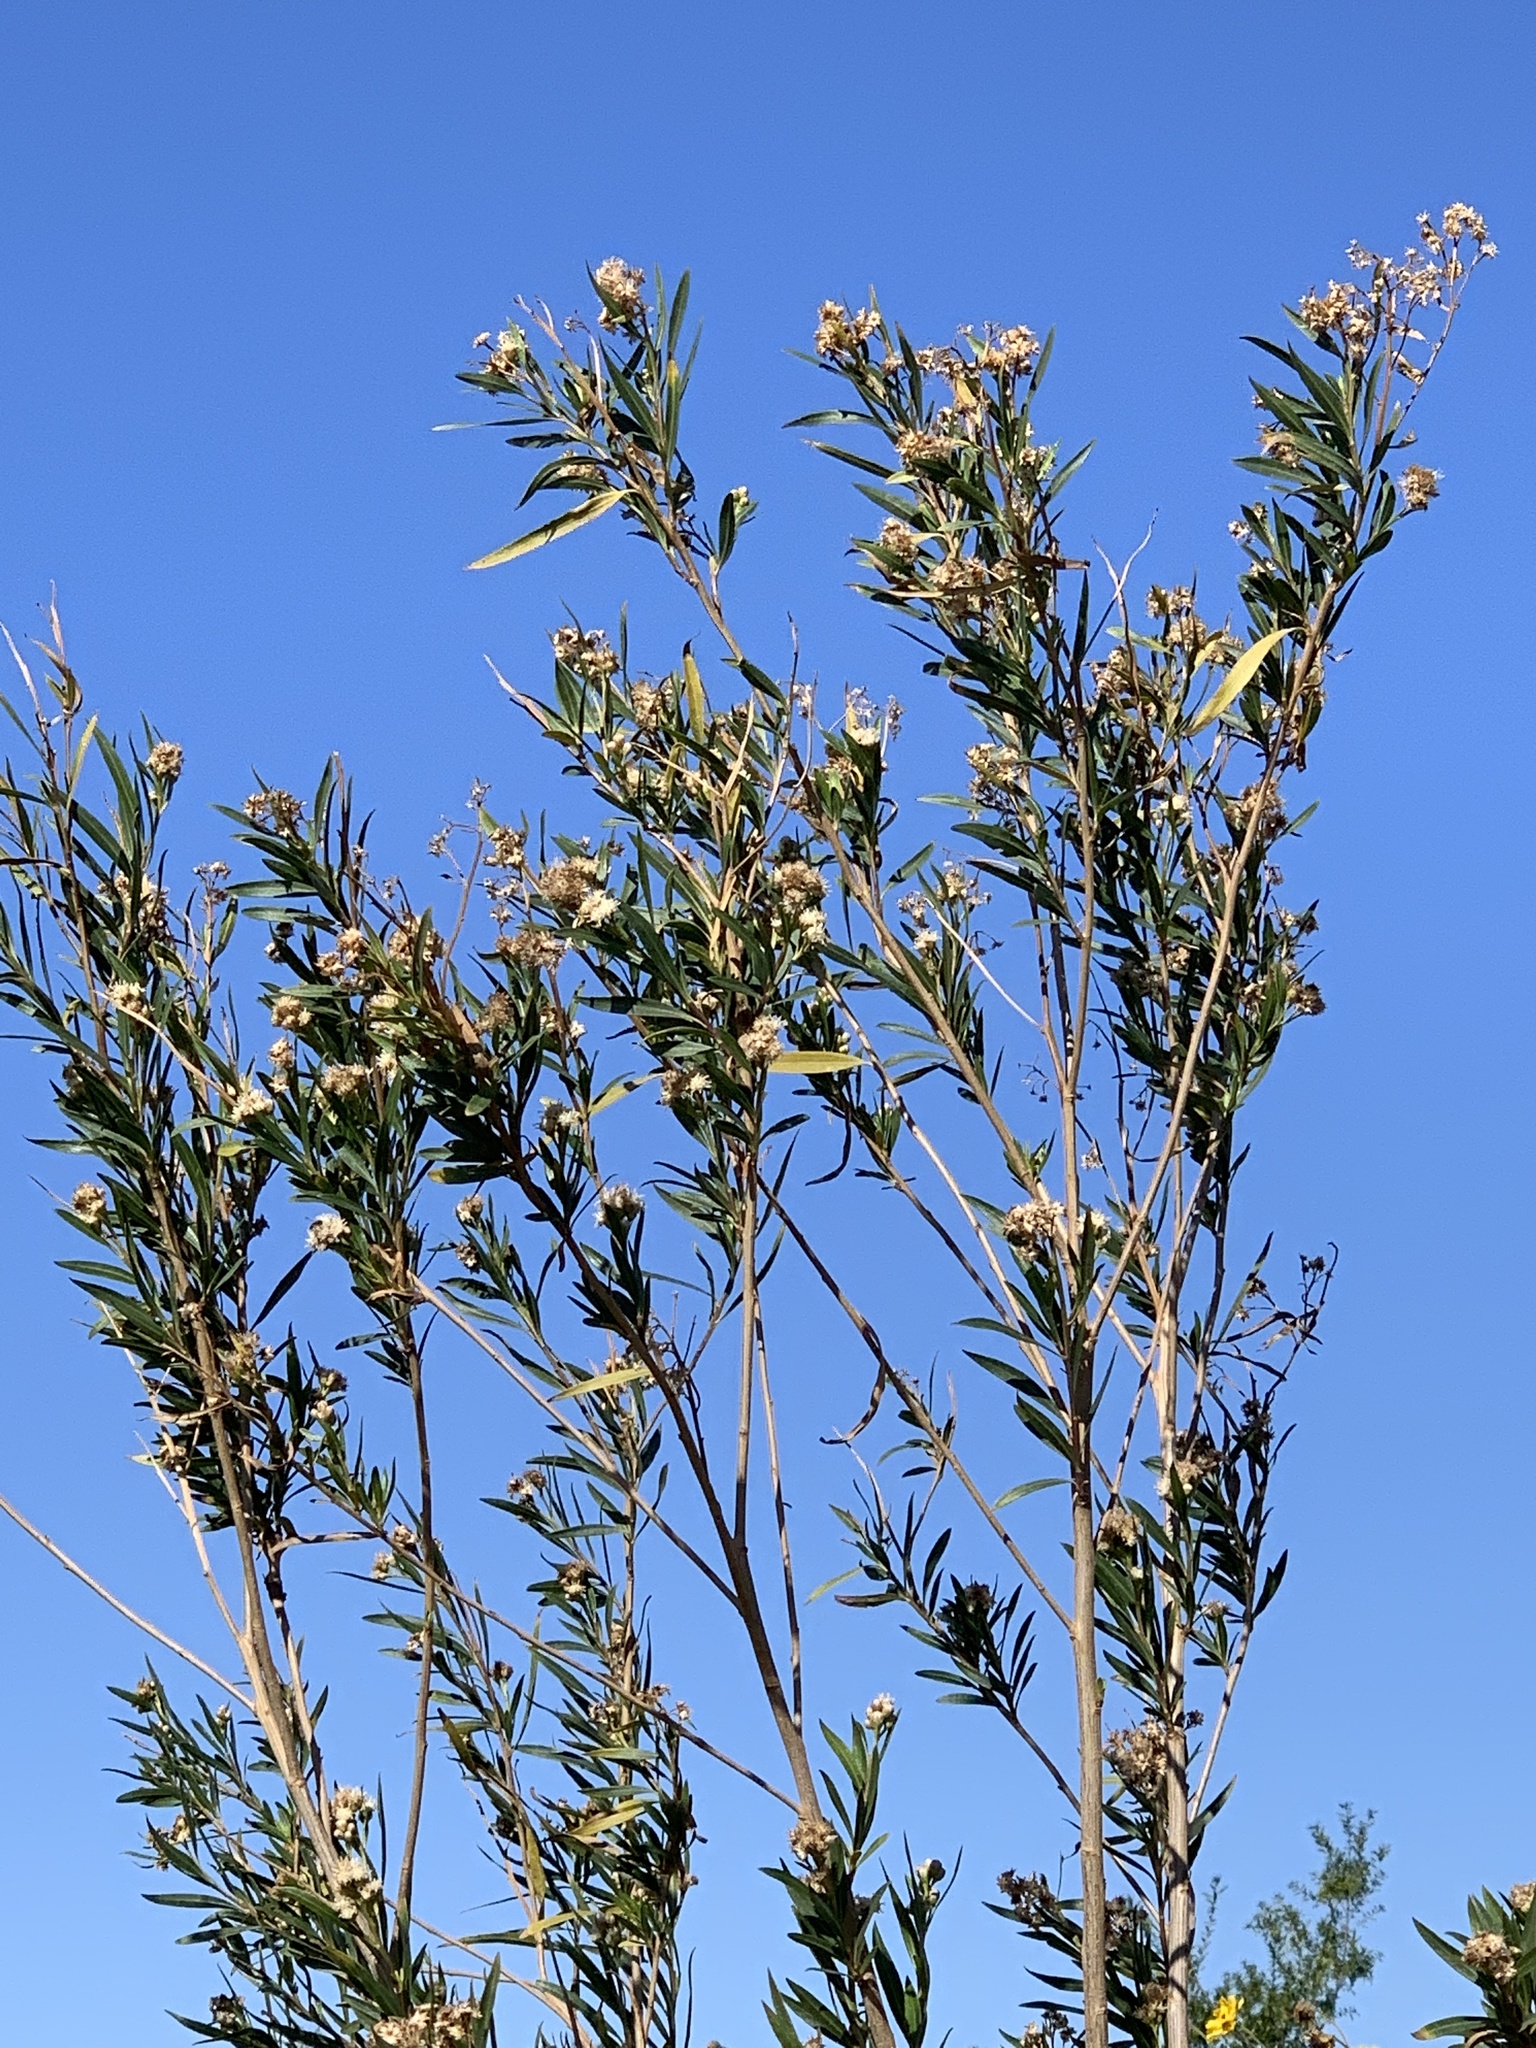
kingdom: Plantae
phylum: Tracheophyta
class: Magnoliopsida
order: Asterales
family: Asteraceae
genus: Baccharis
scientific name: Baccharis salicifolia
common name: Sticky baccharis
